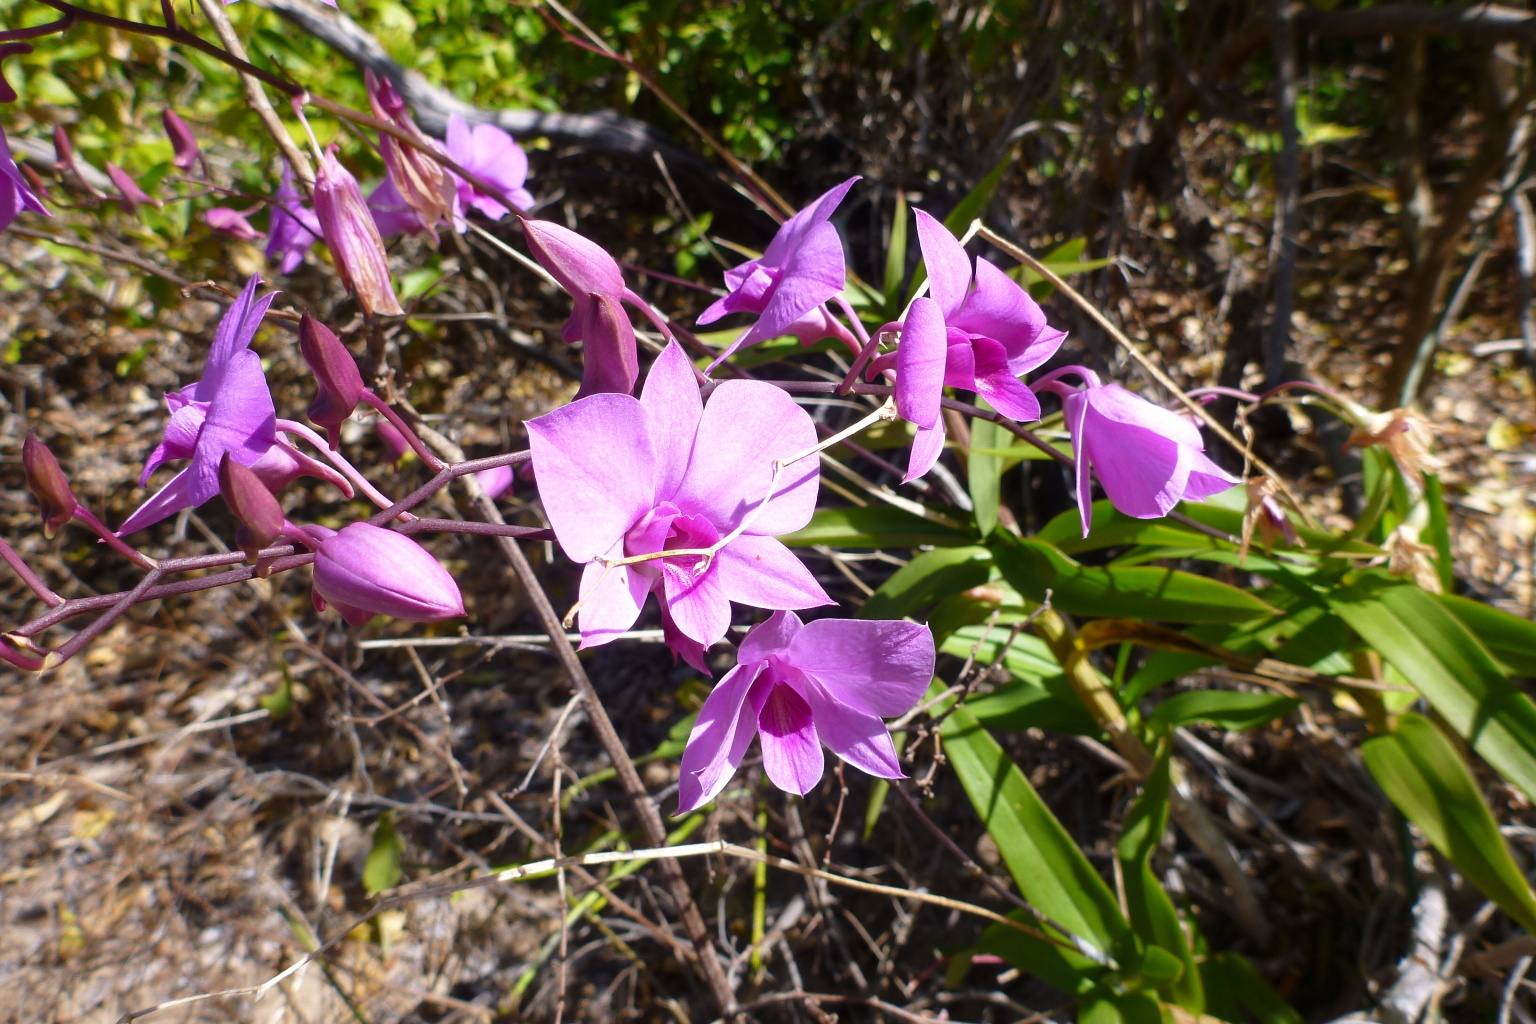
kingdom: Plantae
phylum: Tracheophyta
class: Liliopsida
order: Asparagales
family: Orchidaceae
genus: Dendrobium
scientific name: Dendrobium bigibbum
